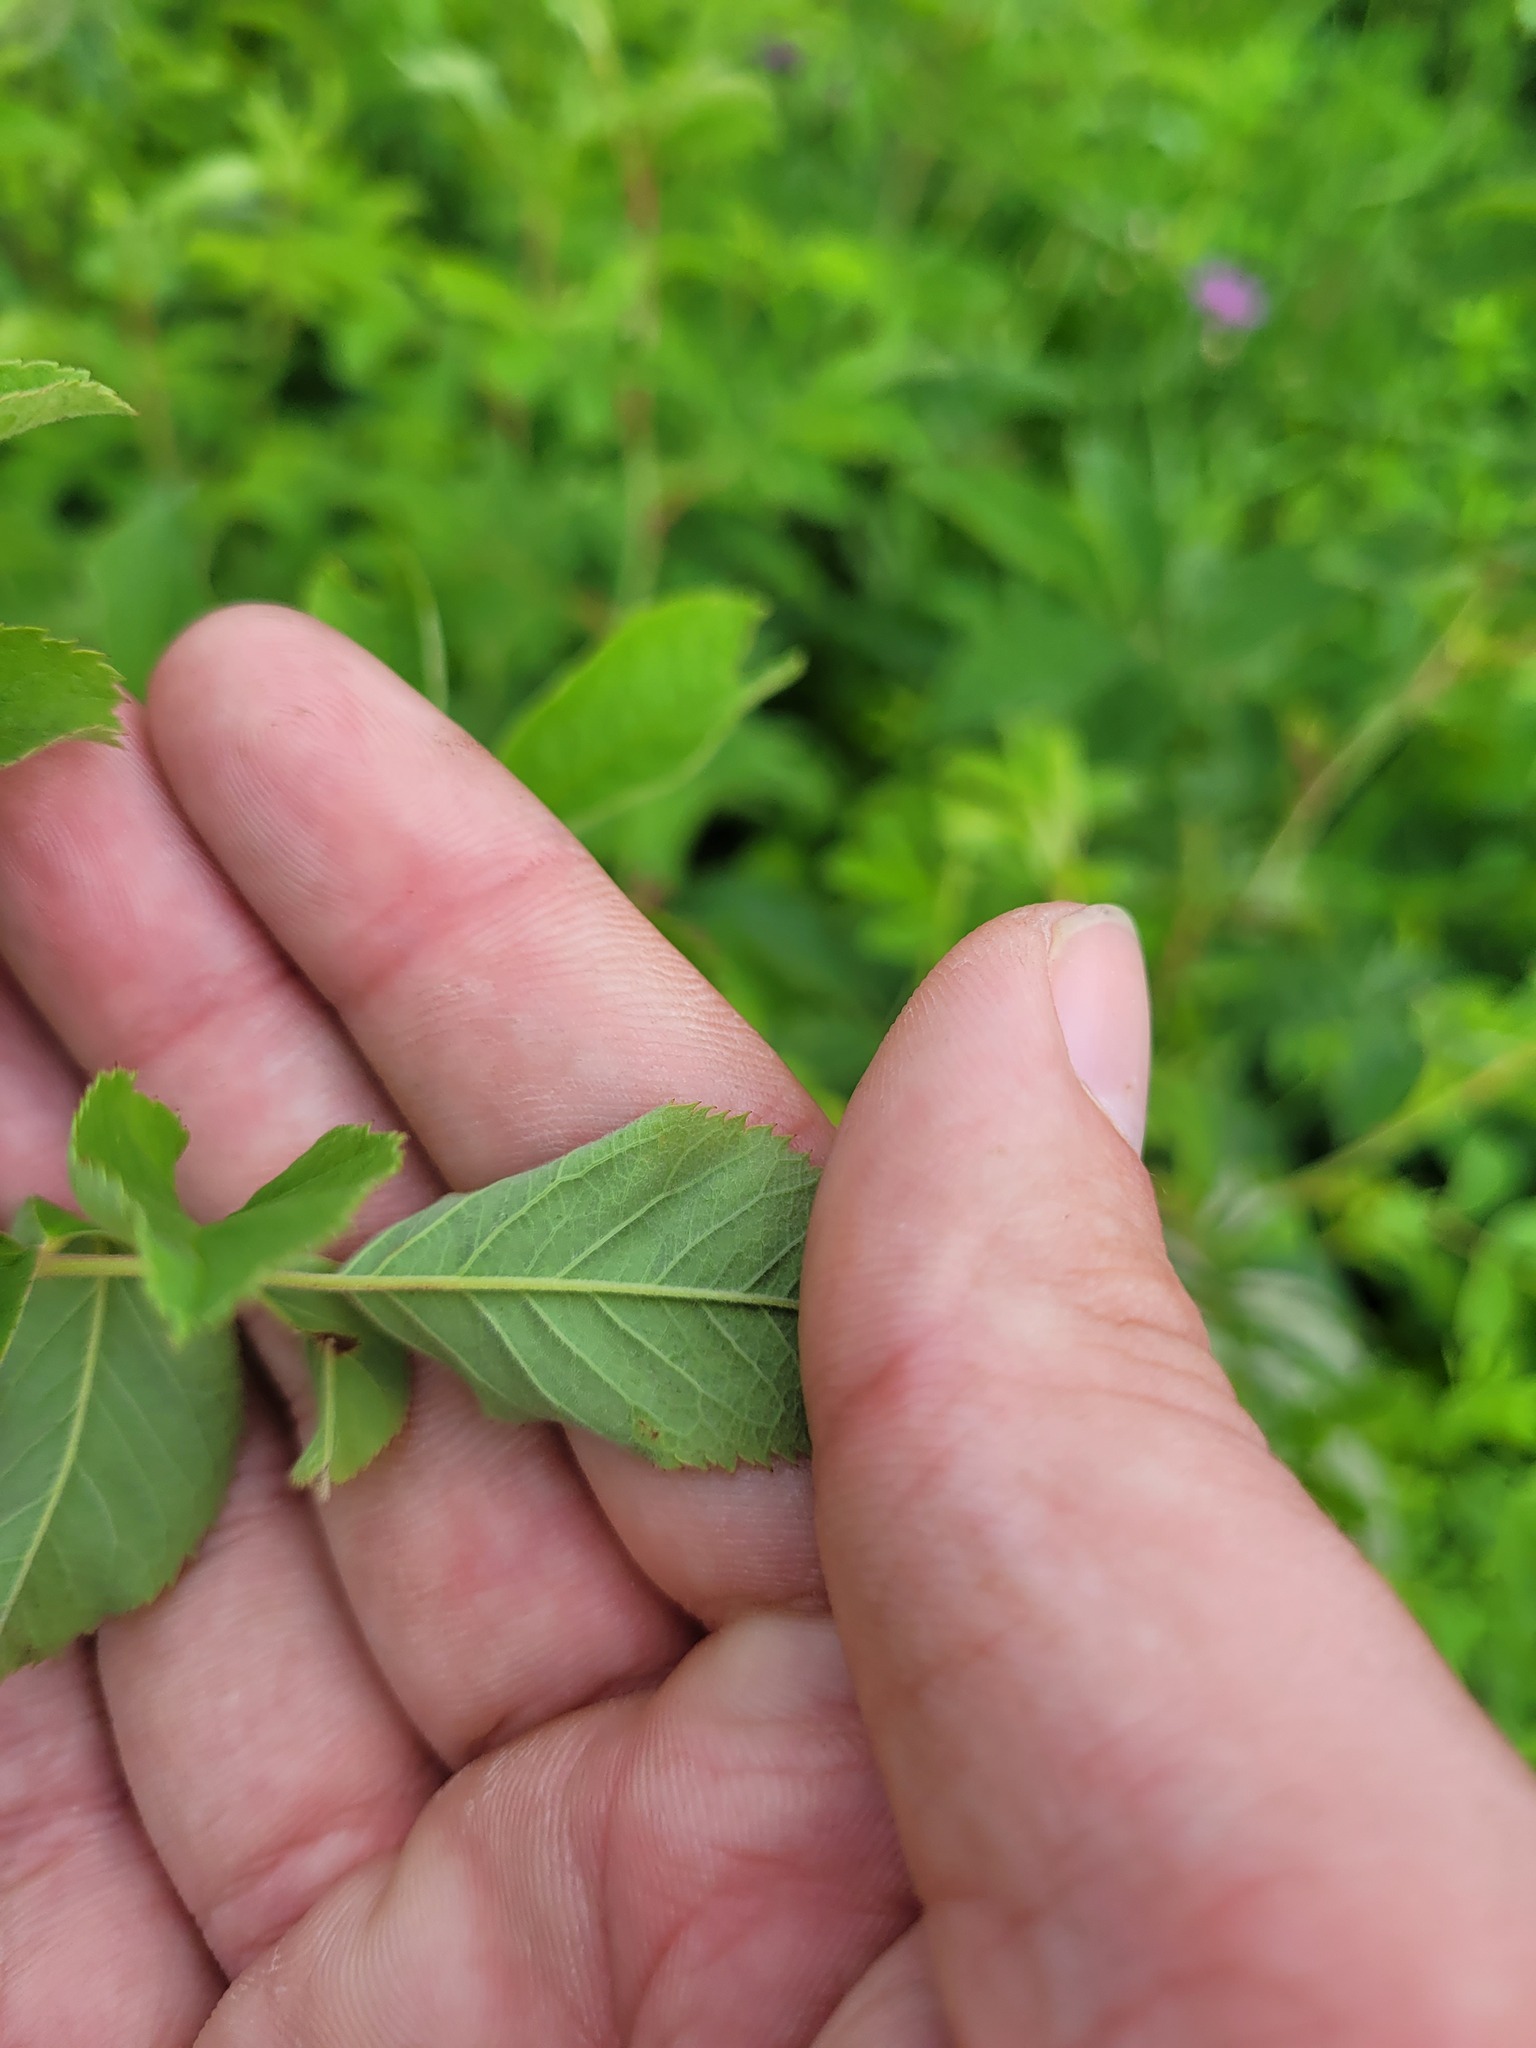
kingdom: Plantae
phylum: Tracheophyta
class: Magnoliopsida
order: Rosales
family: Rosaceae
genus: Rosa
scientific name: Rosa majalis
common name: Cinnamon rose
